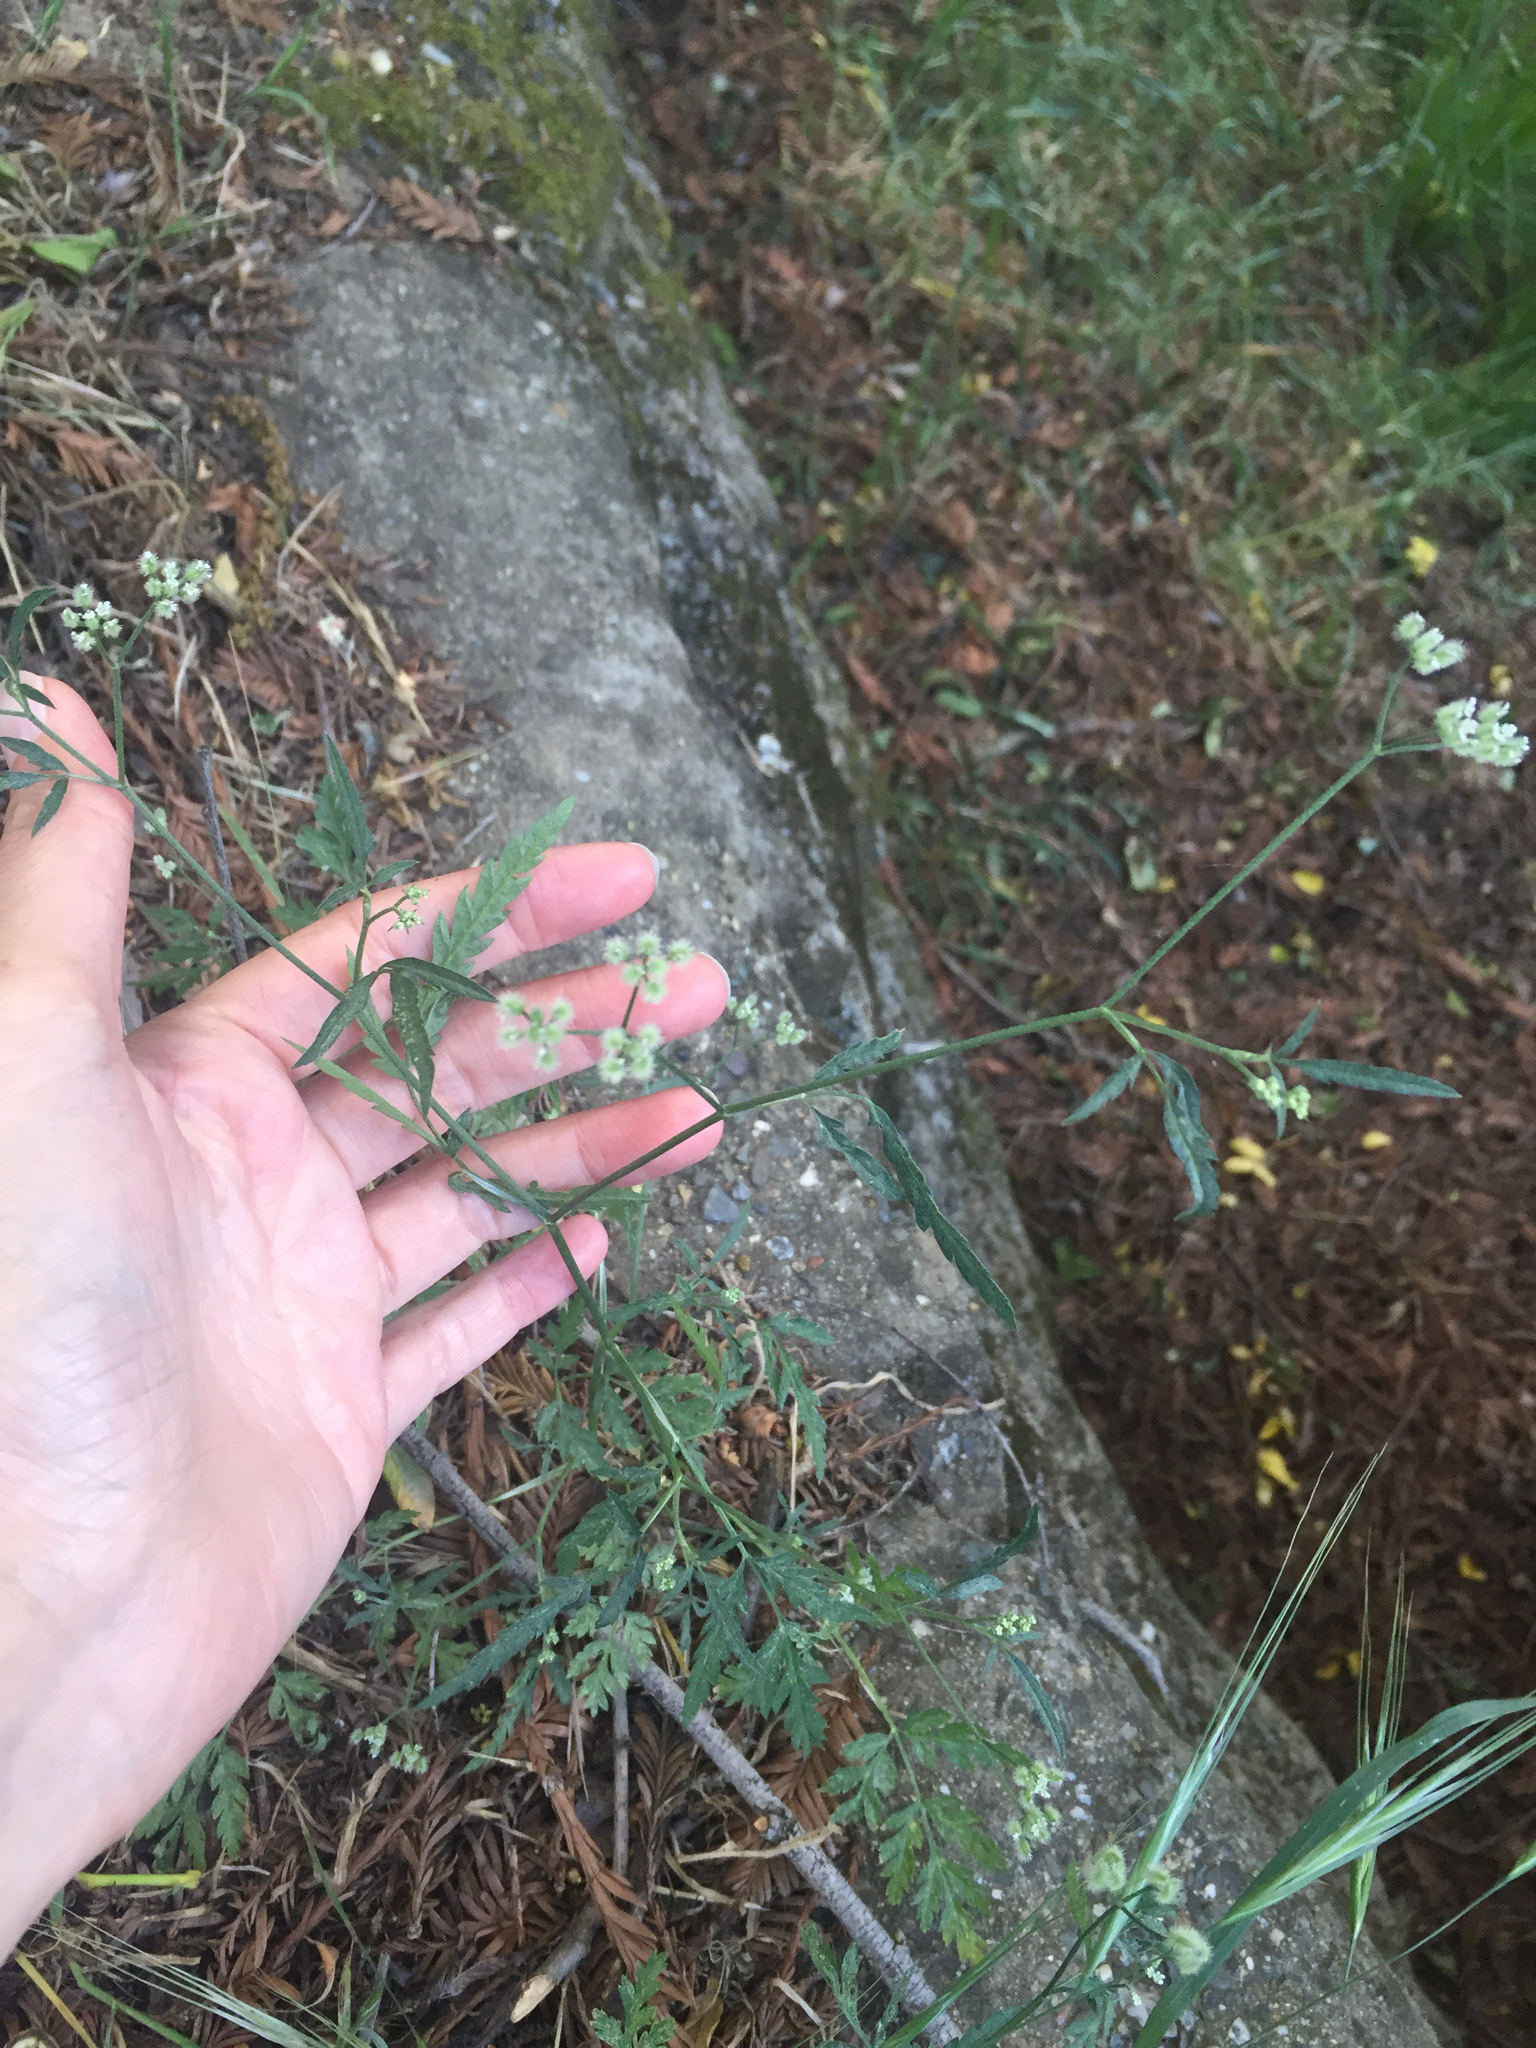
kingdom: Plantae
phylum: Tracheophyta
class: Magnoliopsida
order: Apiales
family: Apiaceae
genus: Torilis
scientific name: Torilis arvensis
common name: Spreading hedge-parsley
